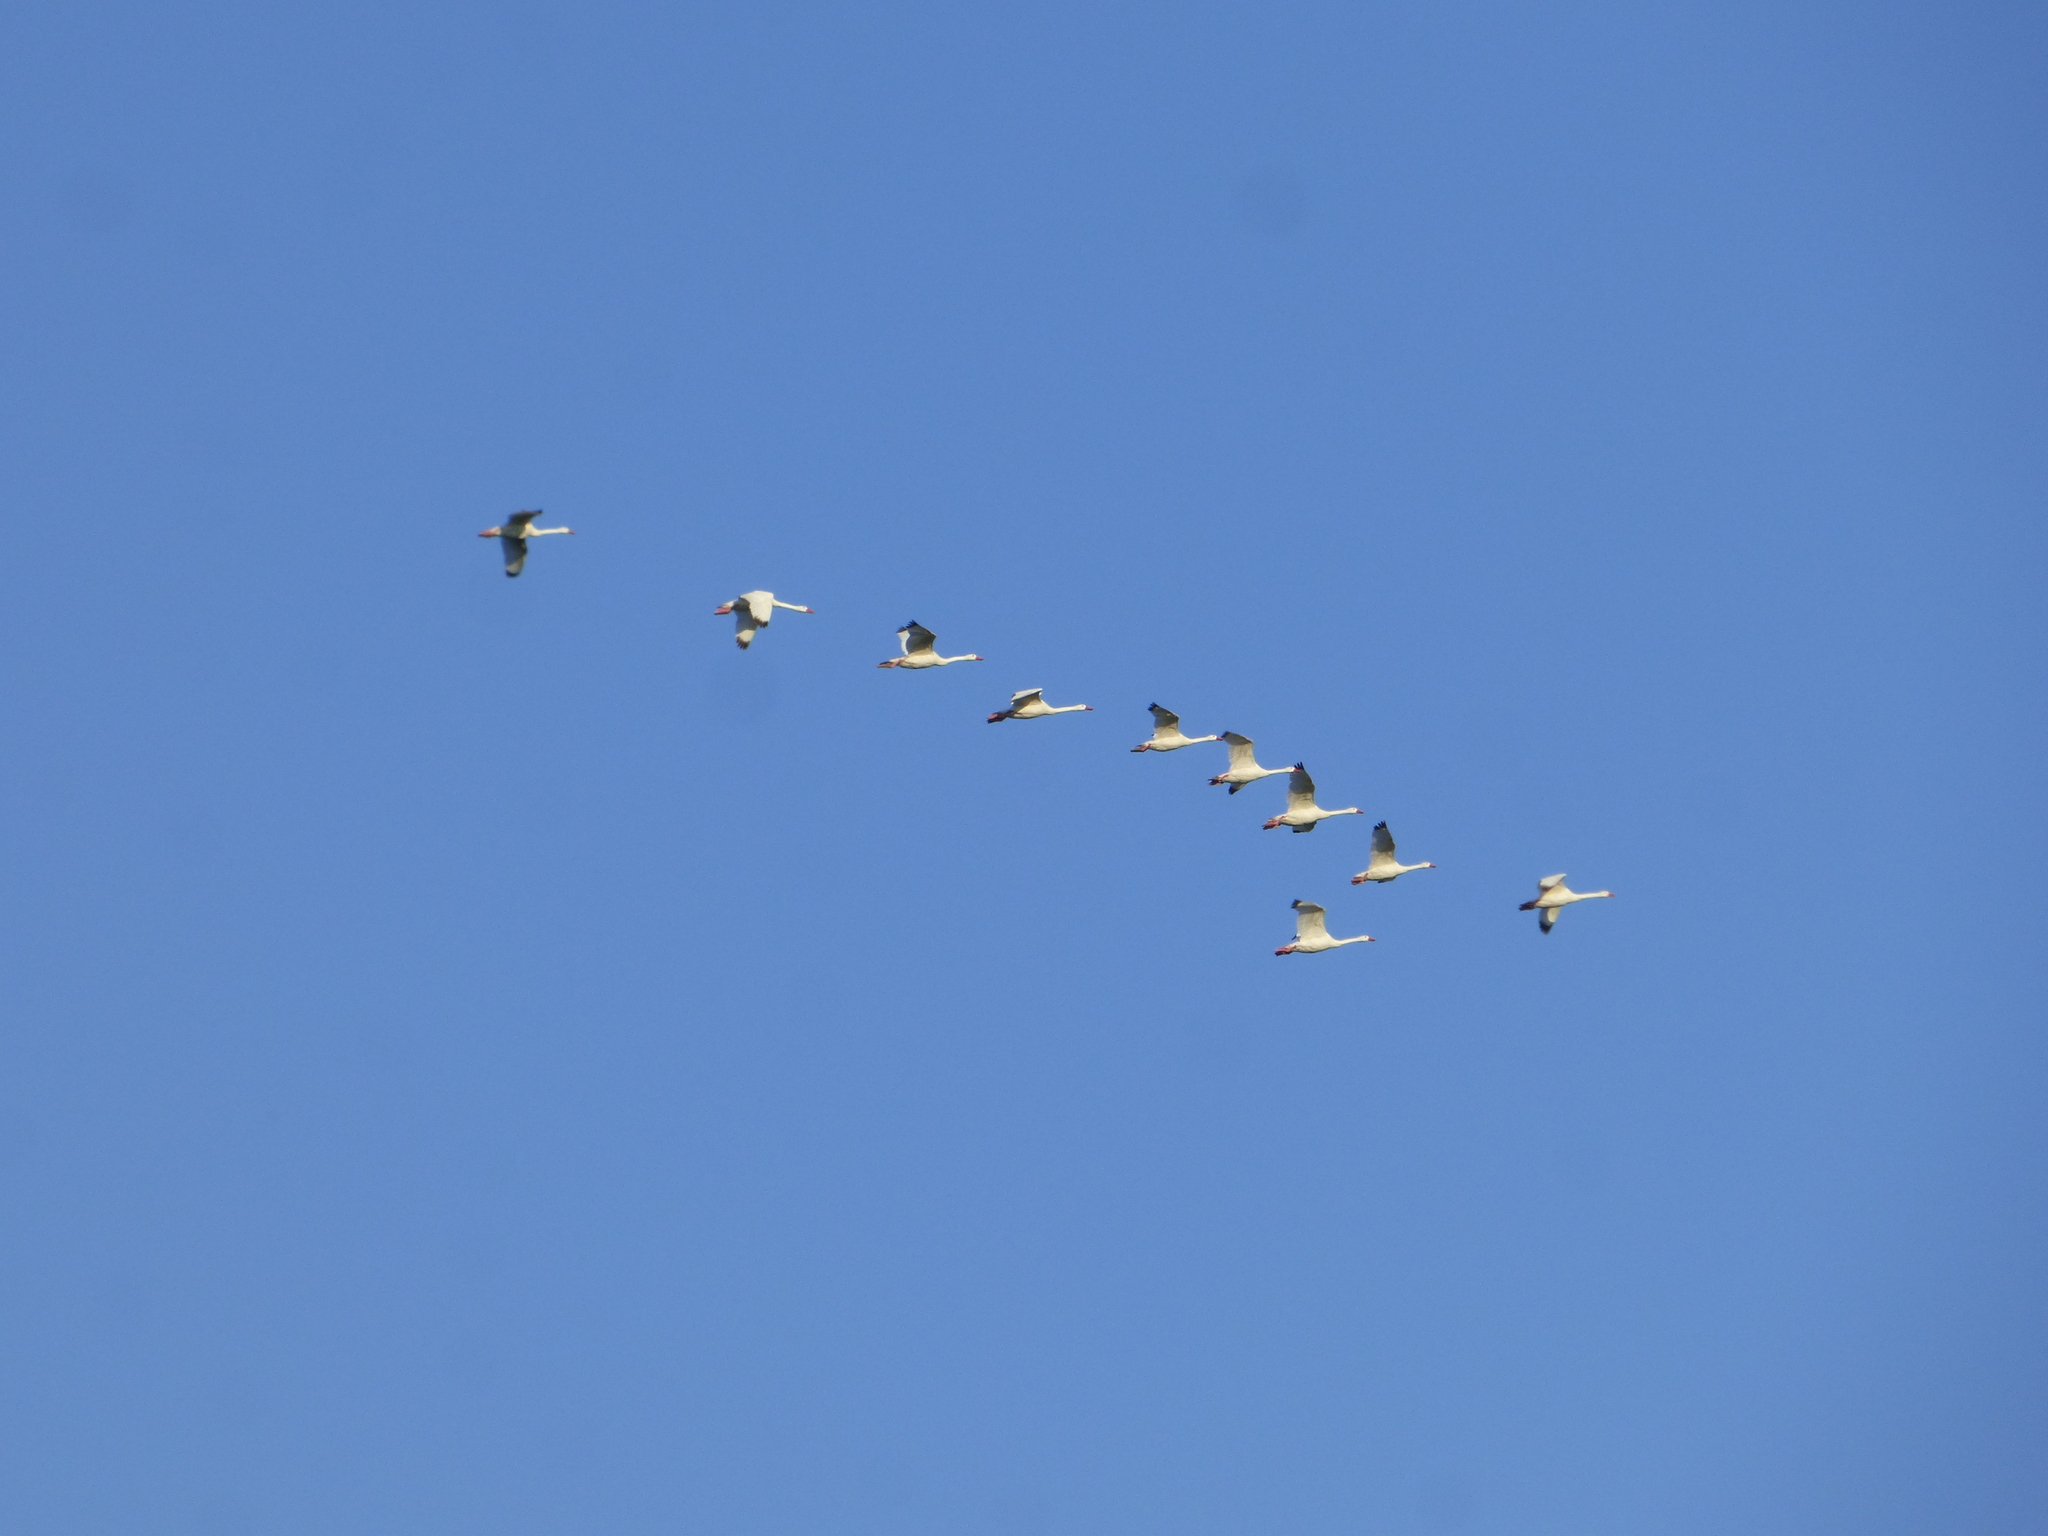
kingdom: Animalia
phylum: Chordata
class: Aves
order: Anseriformes
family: Anatidae
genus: Coscoroba
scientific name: Coscoroba coscoroba
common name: Coscoroba swan
